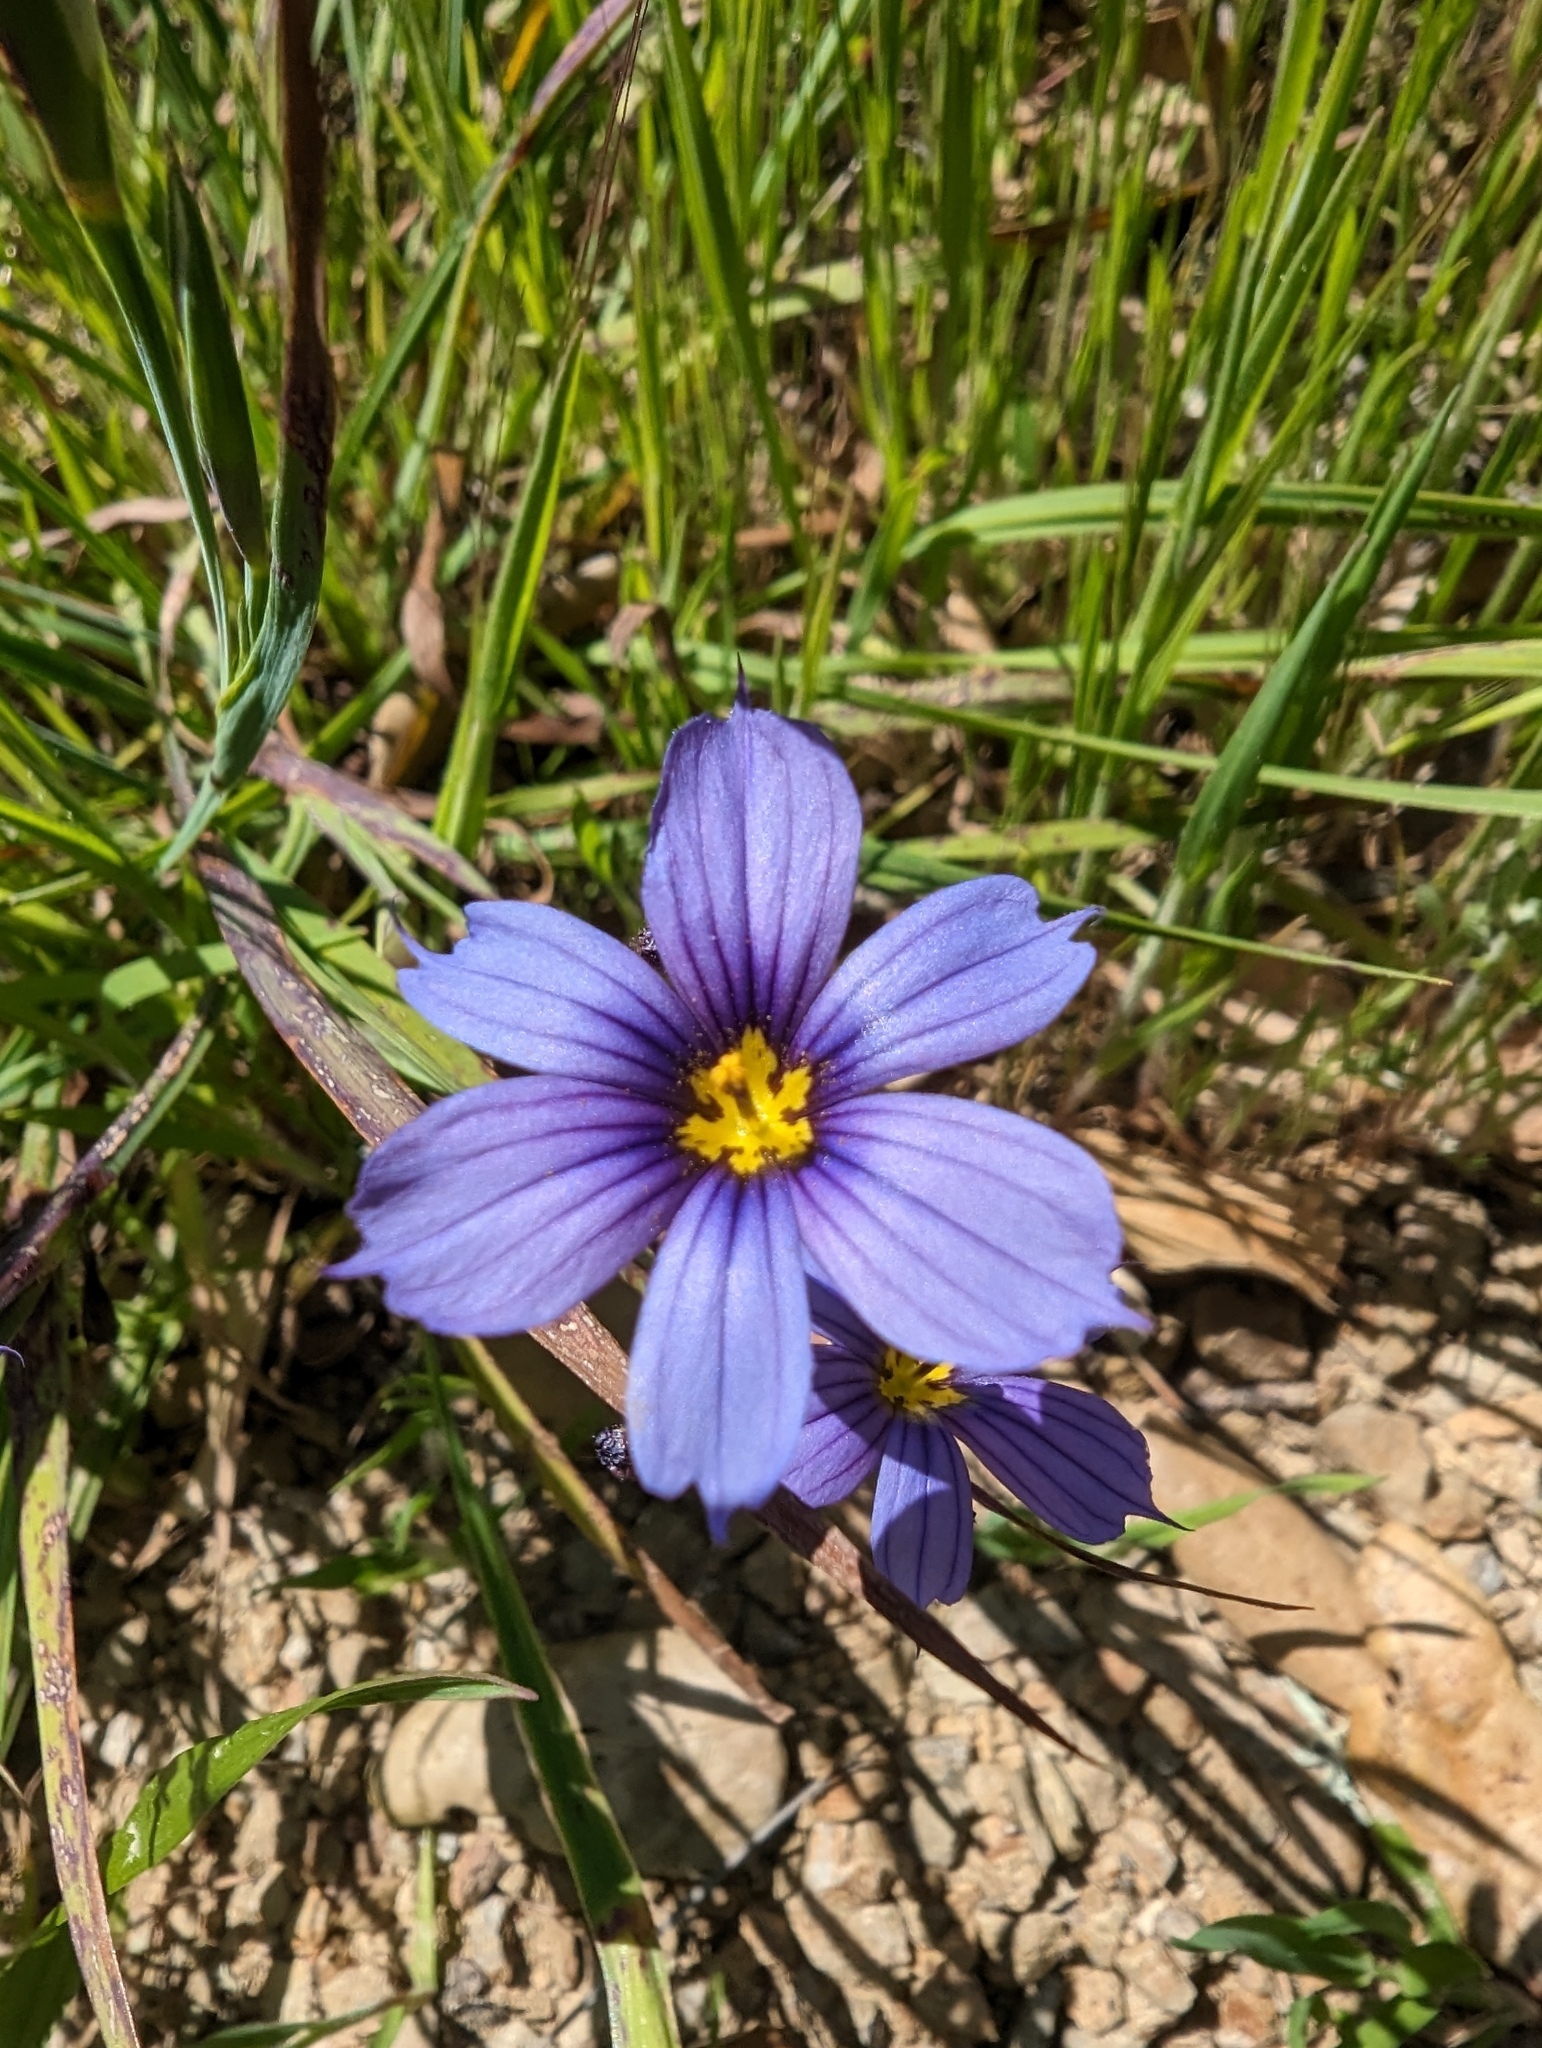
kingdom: Plantae
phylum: Tracheophyta
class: Liliopsida
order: Asparagales
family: Iridaceae
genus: Sisyrinchium
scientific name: Sisyrinchium bellum
